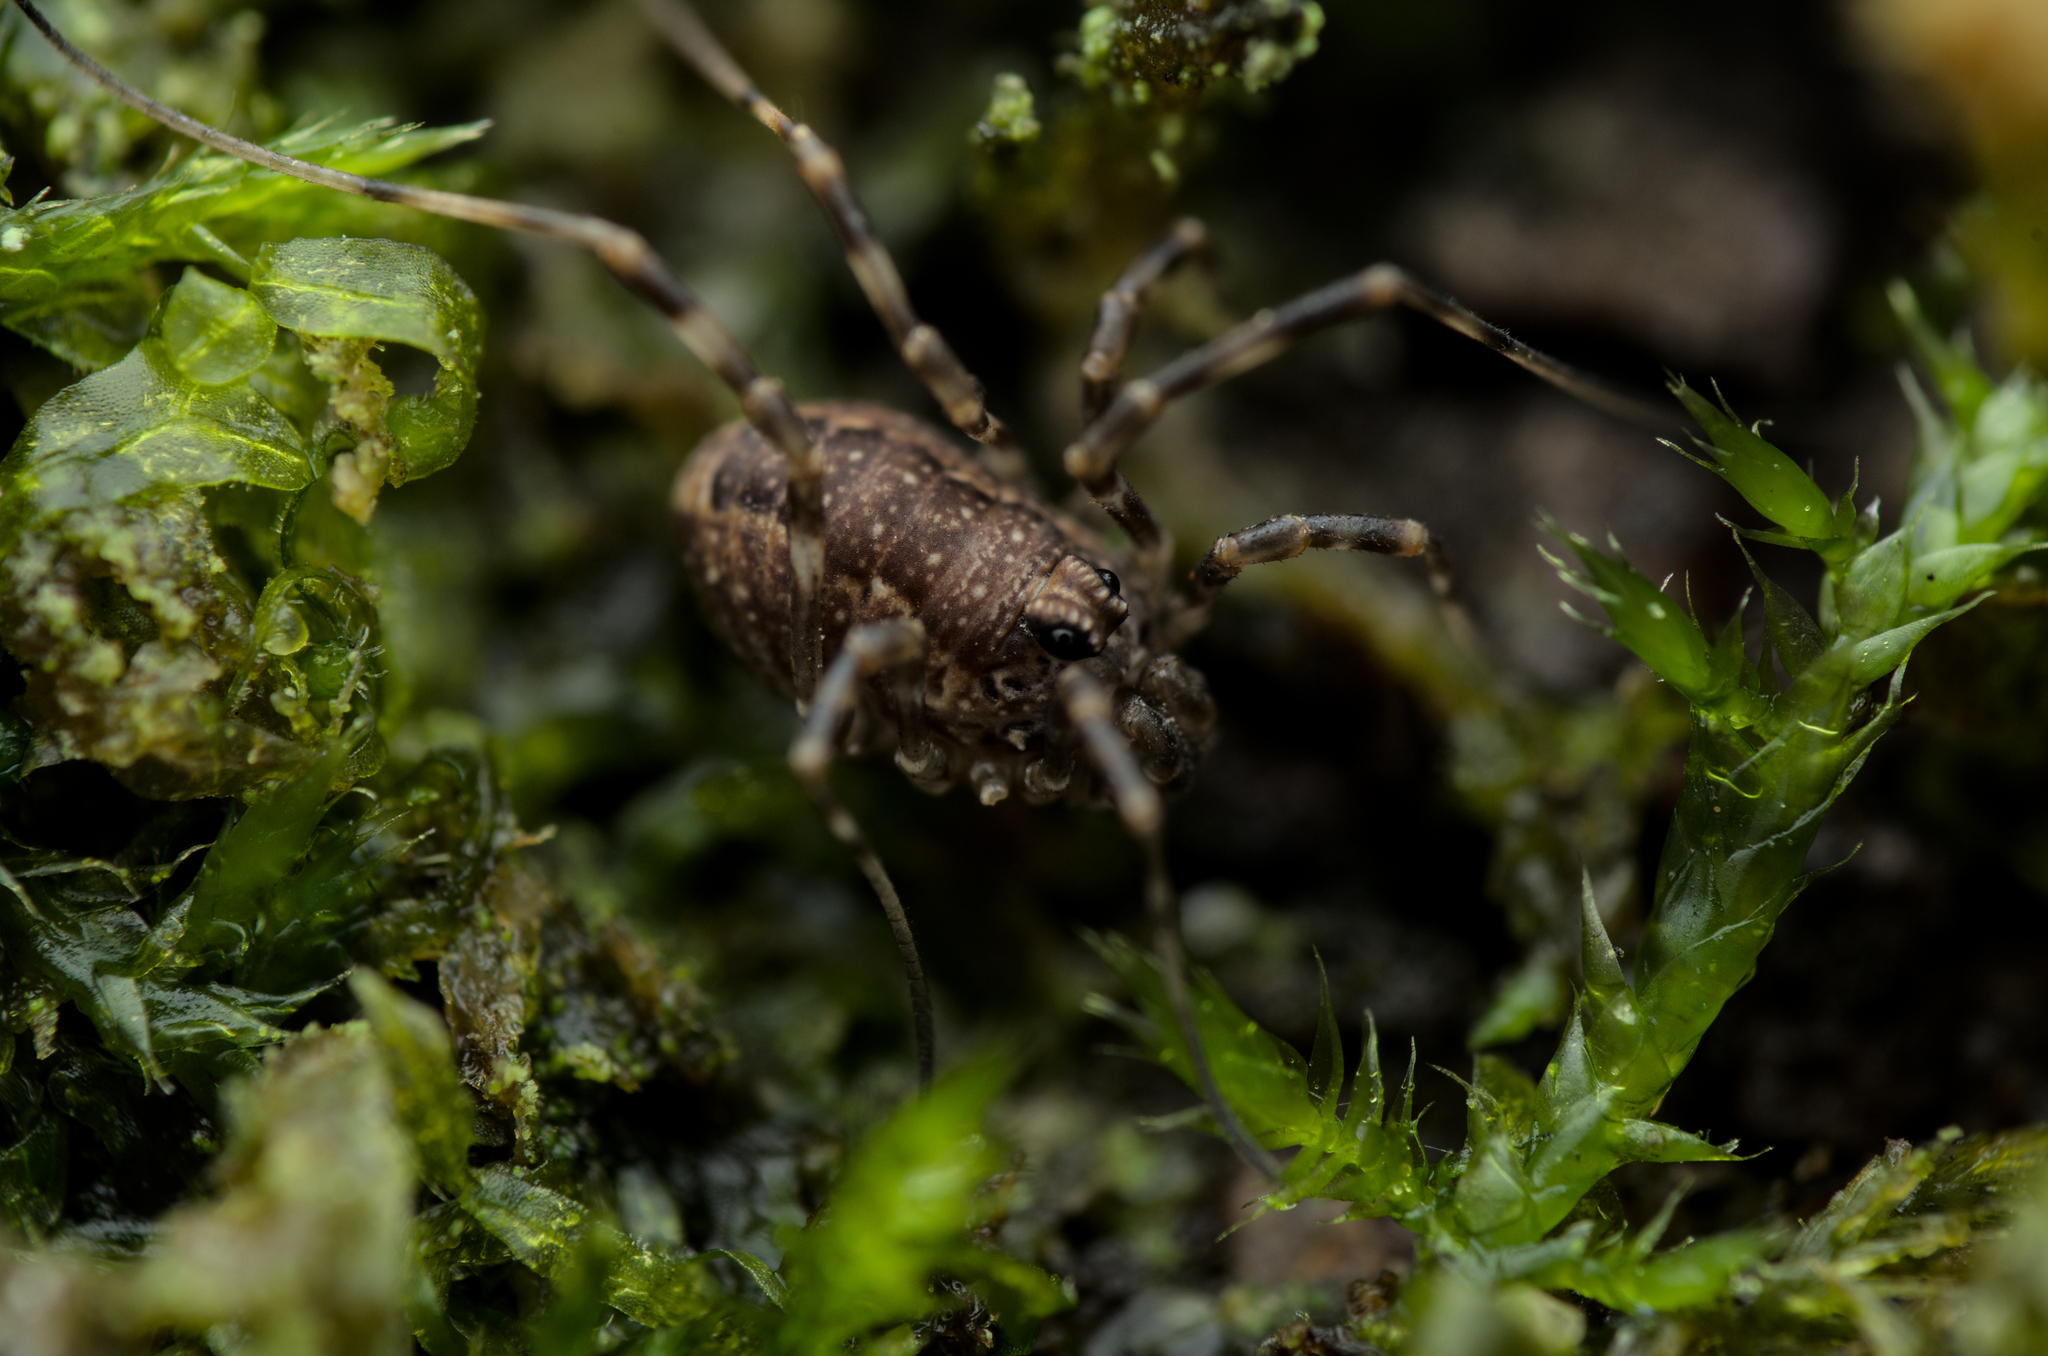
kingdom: Animalia
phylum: Arthropoda
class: Arachnida
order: Opiliones
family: Phalangiidae
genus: Rilaena
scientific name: Rilaena triangularis
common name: Spring harvestman
